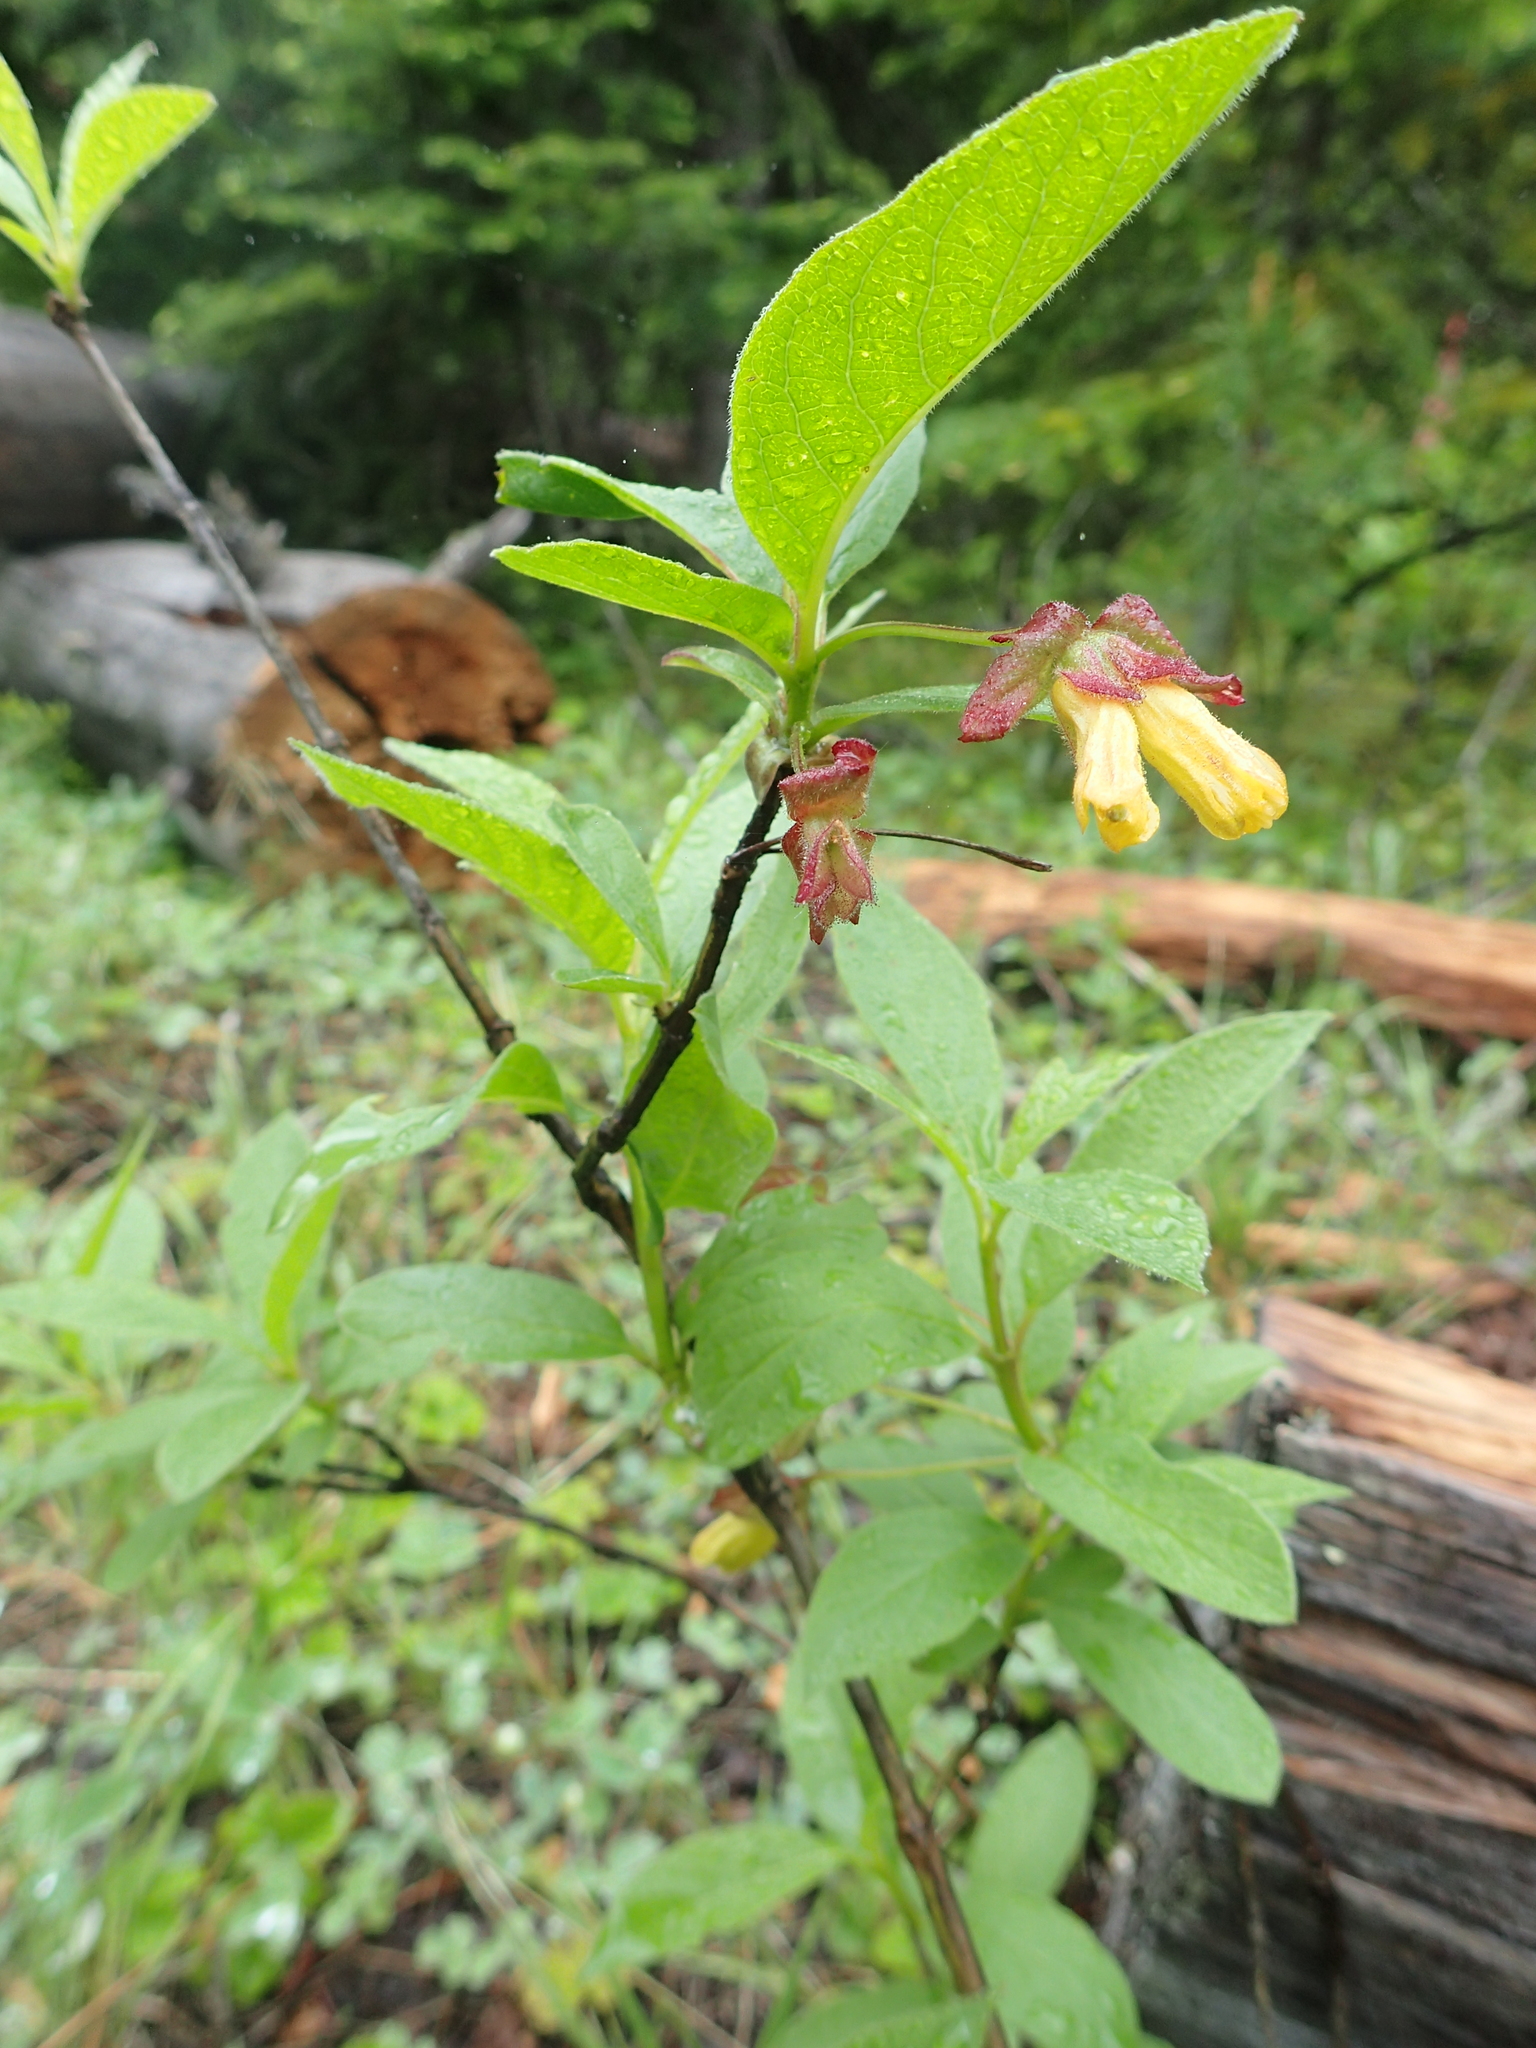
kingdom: Plantae
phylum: Tracheophyta
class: Magnoliopsida
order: Dipsacales
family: Caprifoliaceae
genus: Lonicera
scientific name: Lonicera involucrata
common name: Californian honeysuckle
